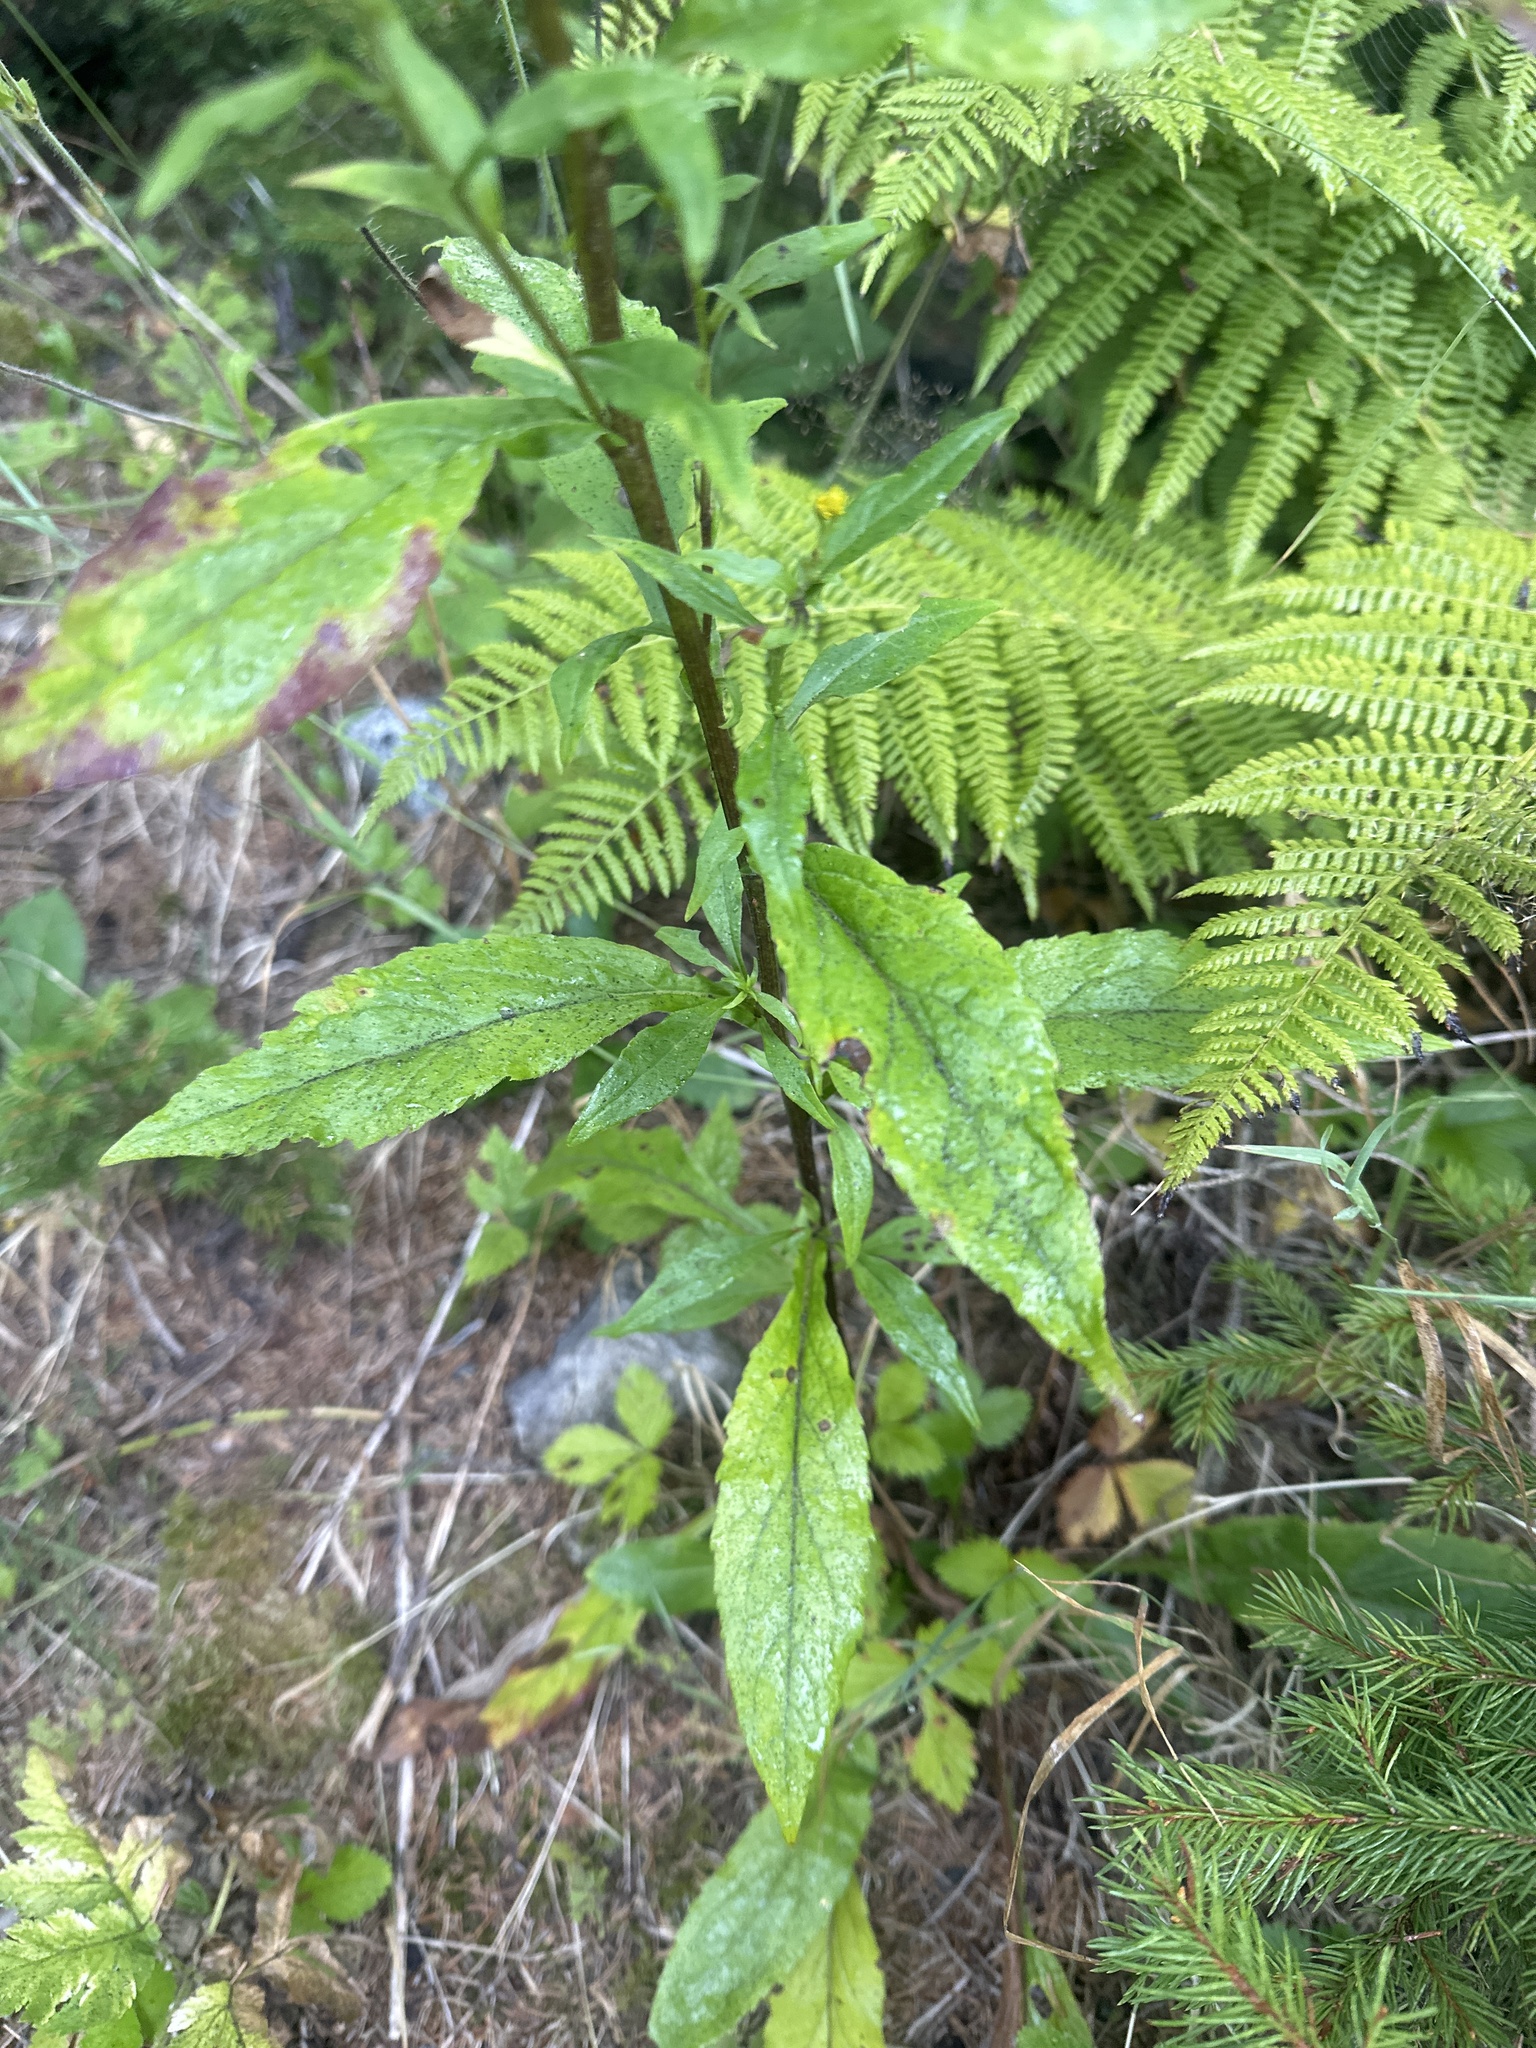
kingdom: Plantae
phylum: Tracheophyta
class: Magnoliopsida
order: Asterales
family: Asteraceae
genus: Solidago
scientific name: Solidago virgaurea
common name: Goldenrod
